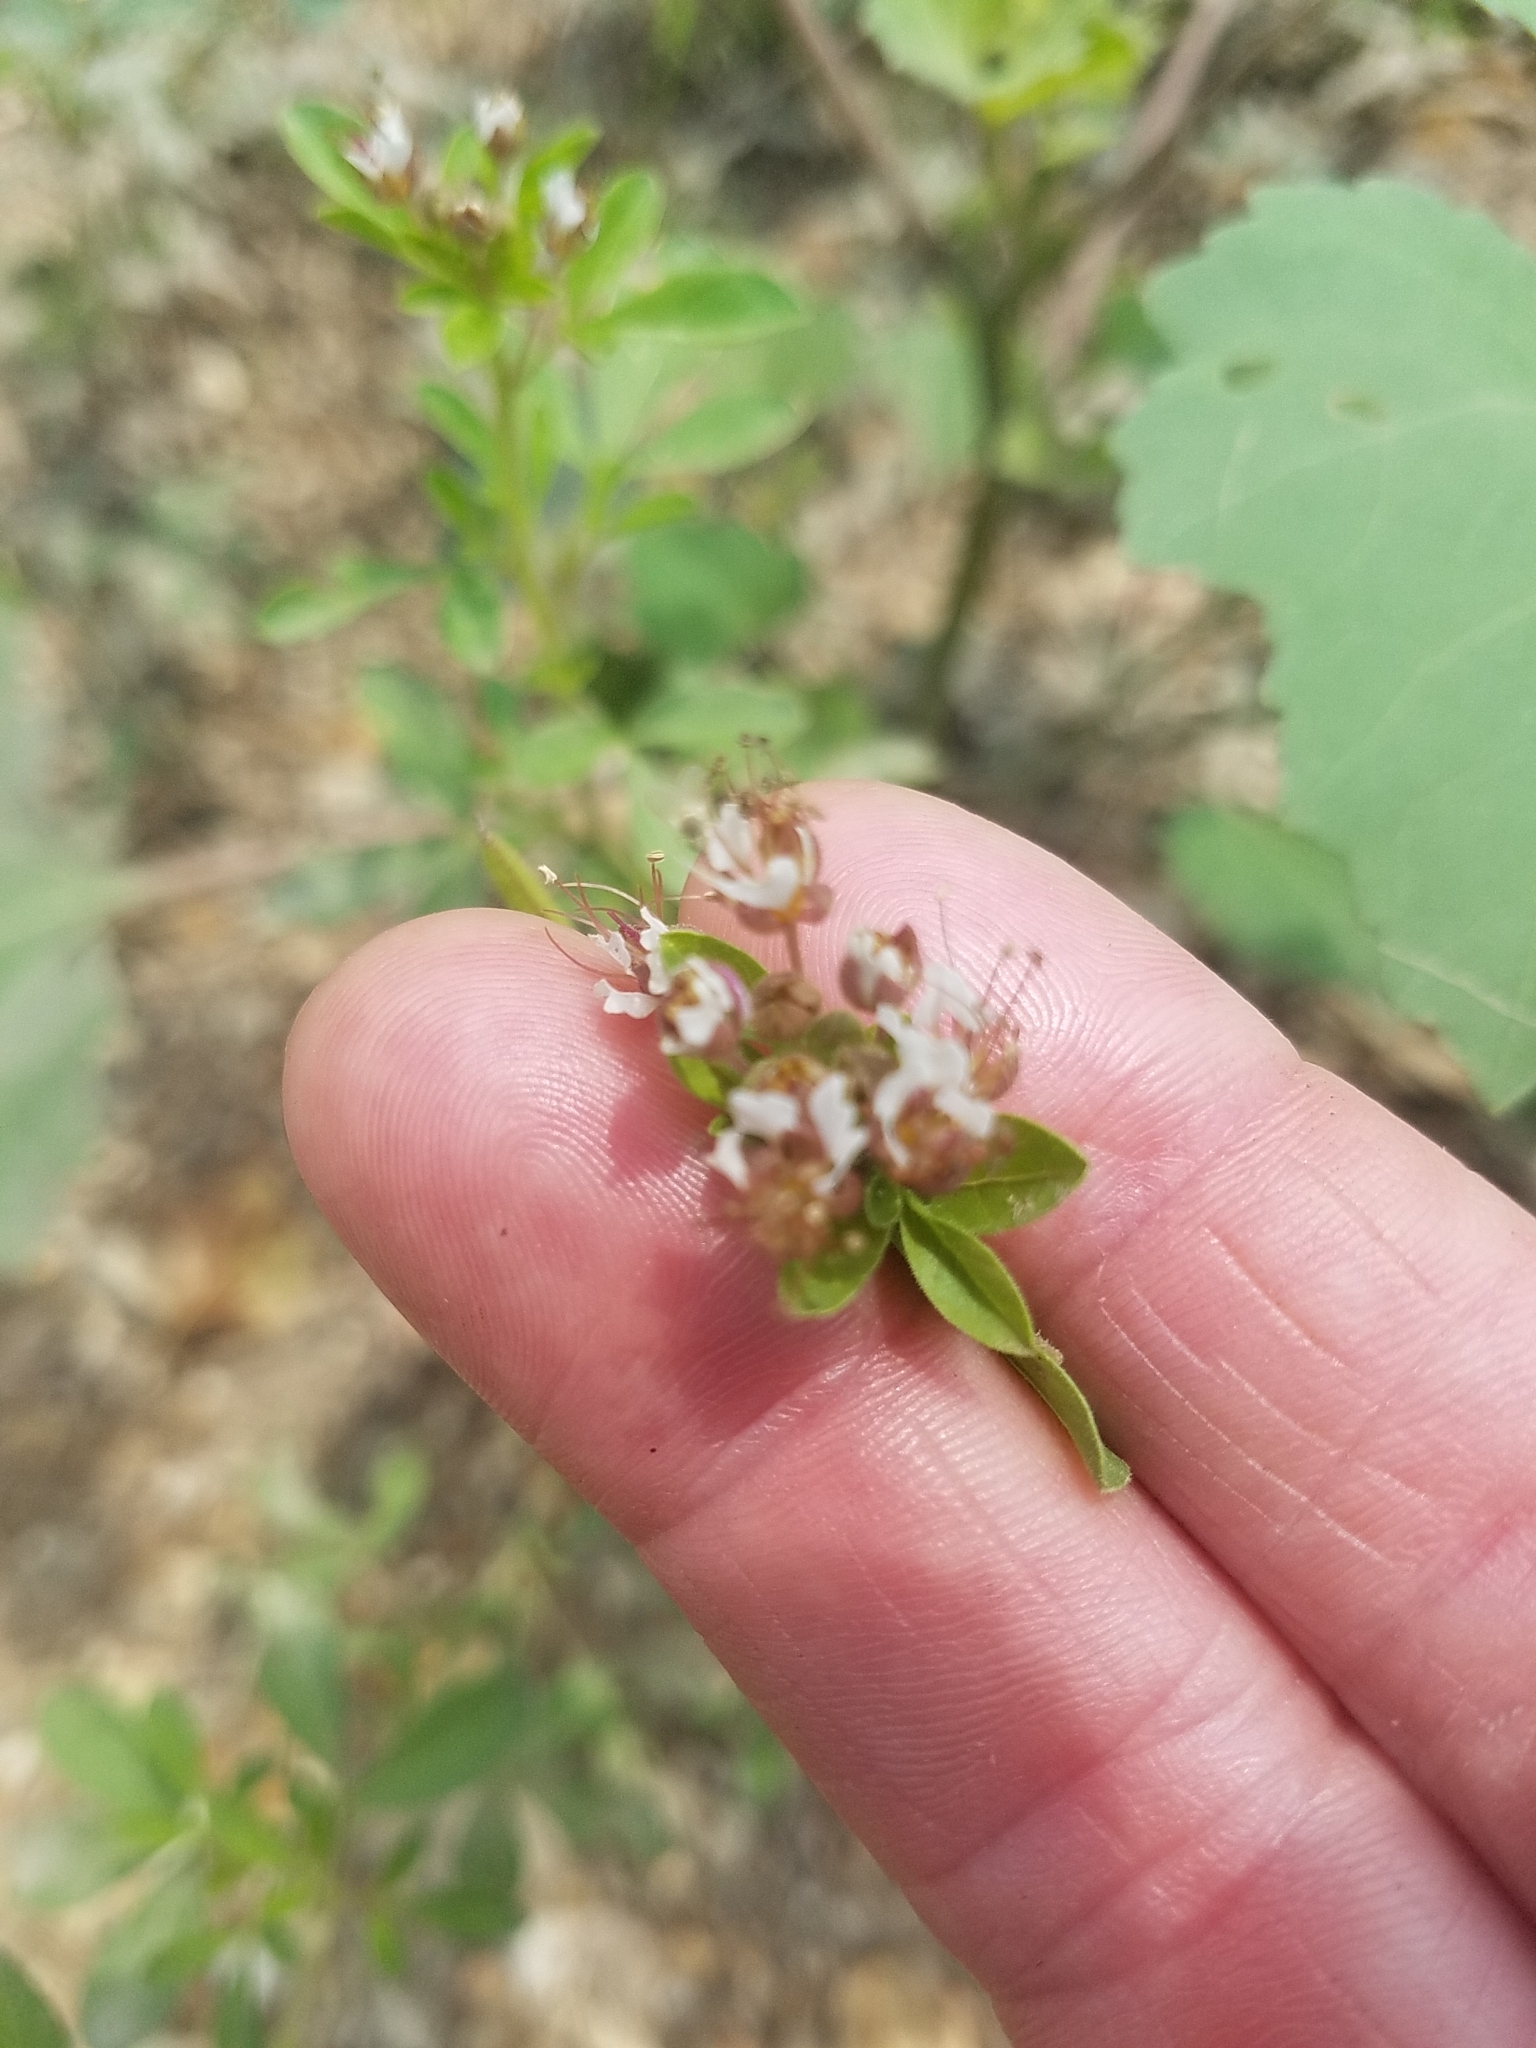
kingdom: Plantae
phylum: Tracheophyta
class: Magnoliopsida
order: Brassicales
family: Cleomaceae
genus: Polanisia
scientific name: Polanisia dodecandra
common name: Clammyweed
